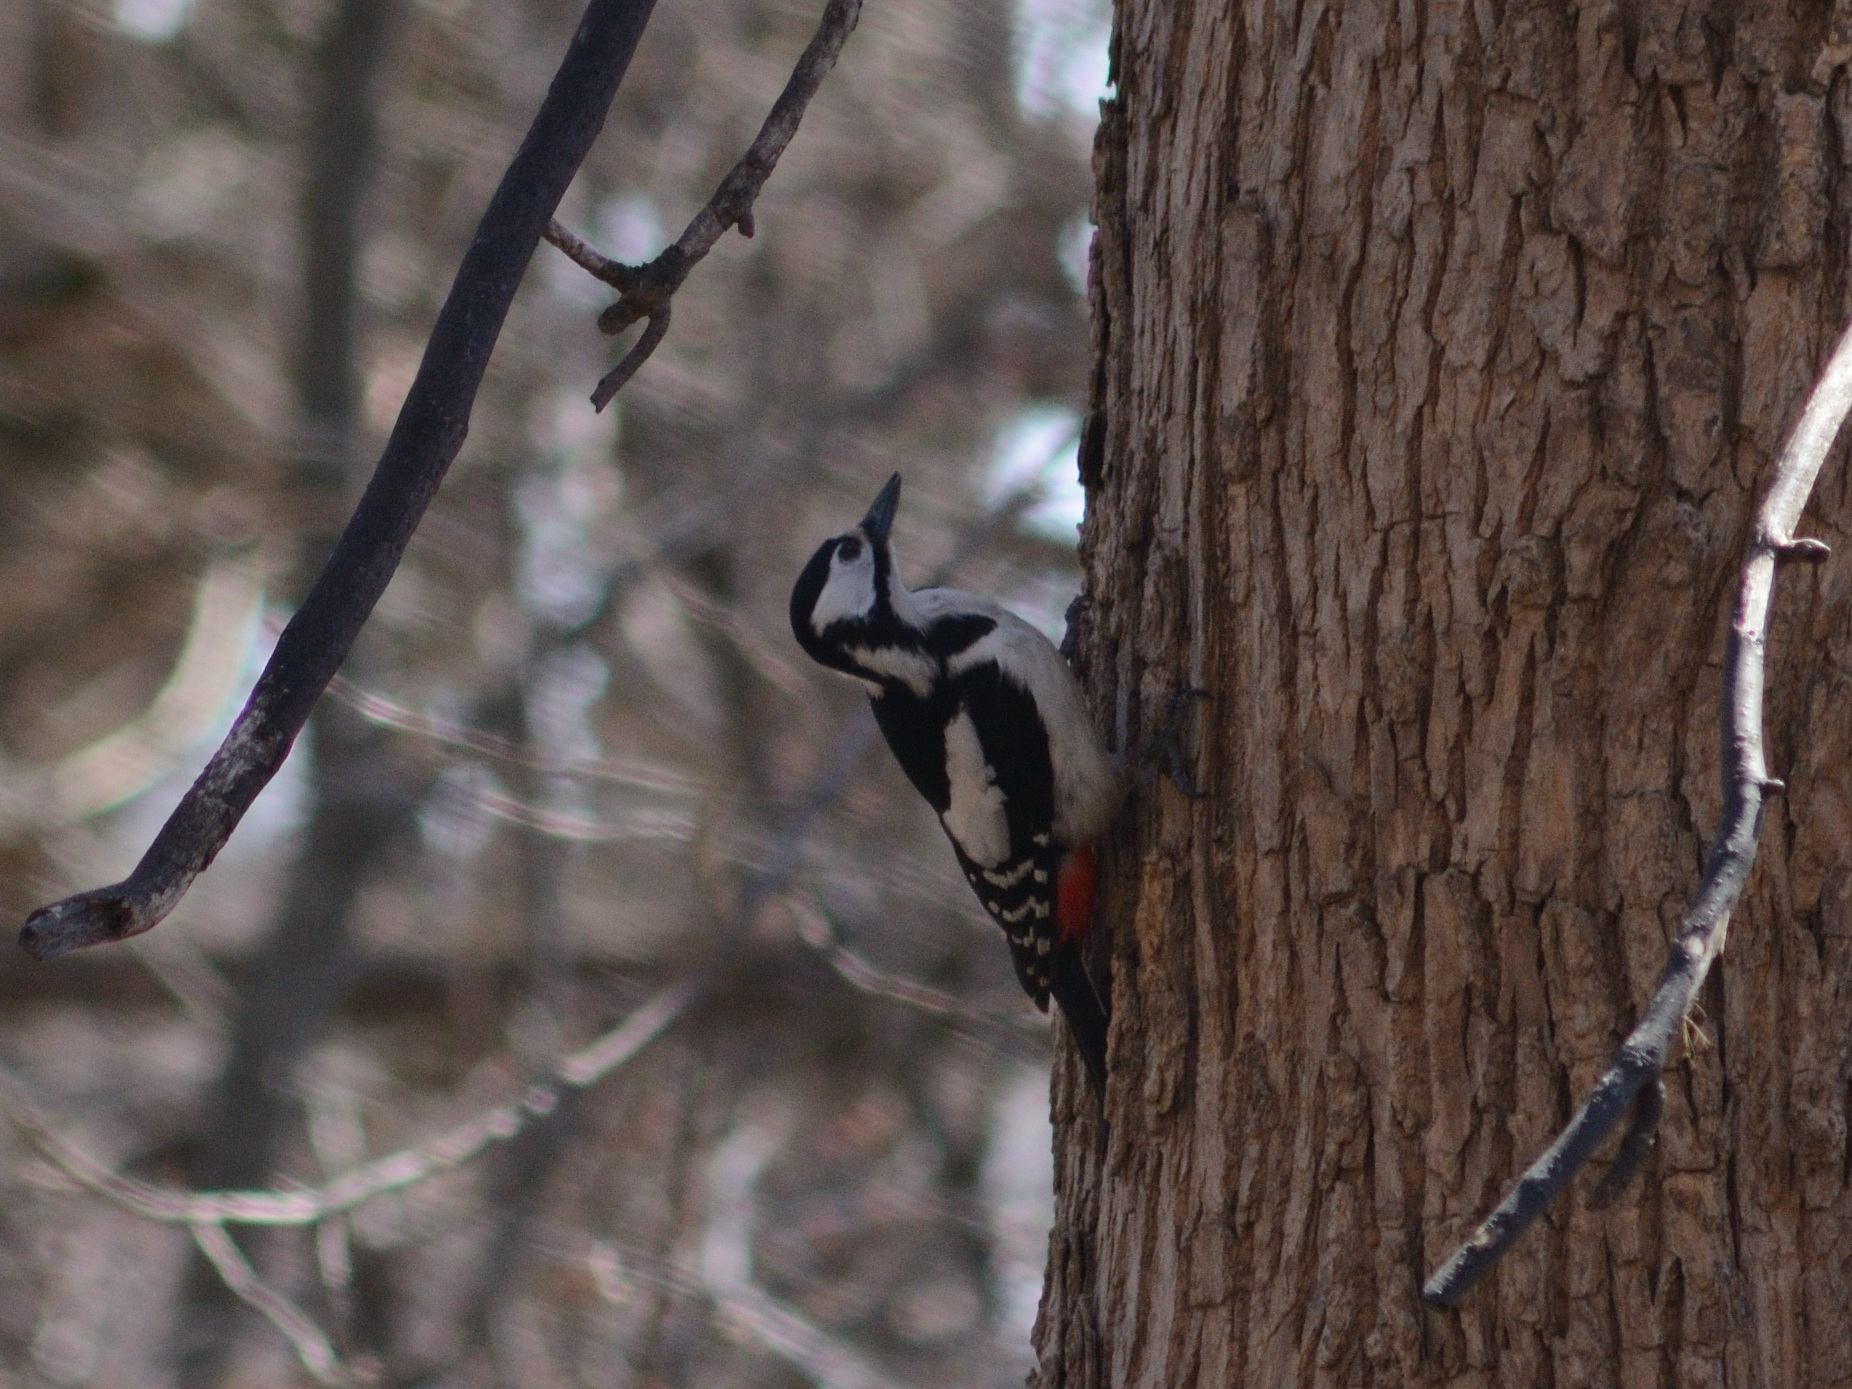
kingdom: Animalia
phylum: Chordata
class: Aves
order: Piciformes
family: Picidae
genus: Dendrocopos
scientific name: Dendrocopos major
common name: Great spotted woodpecker
